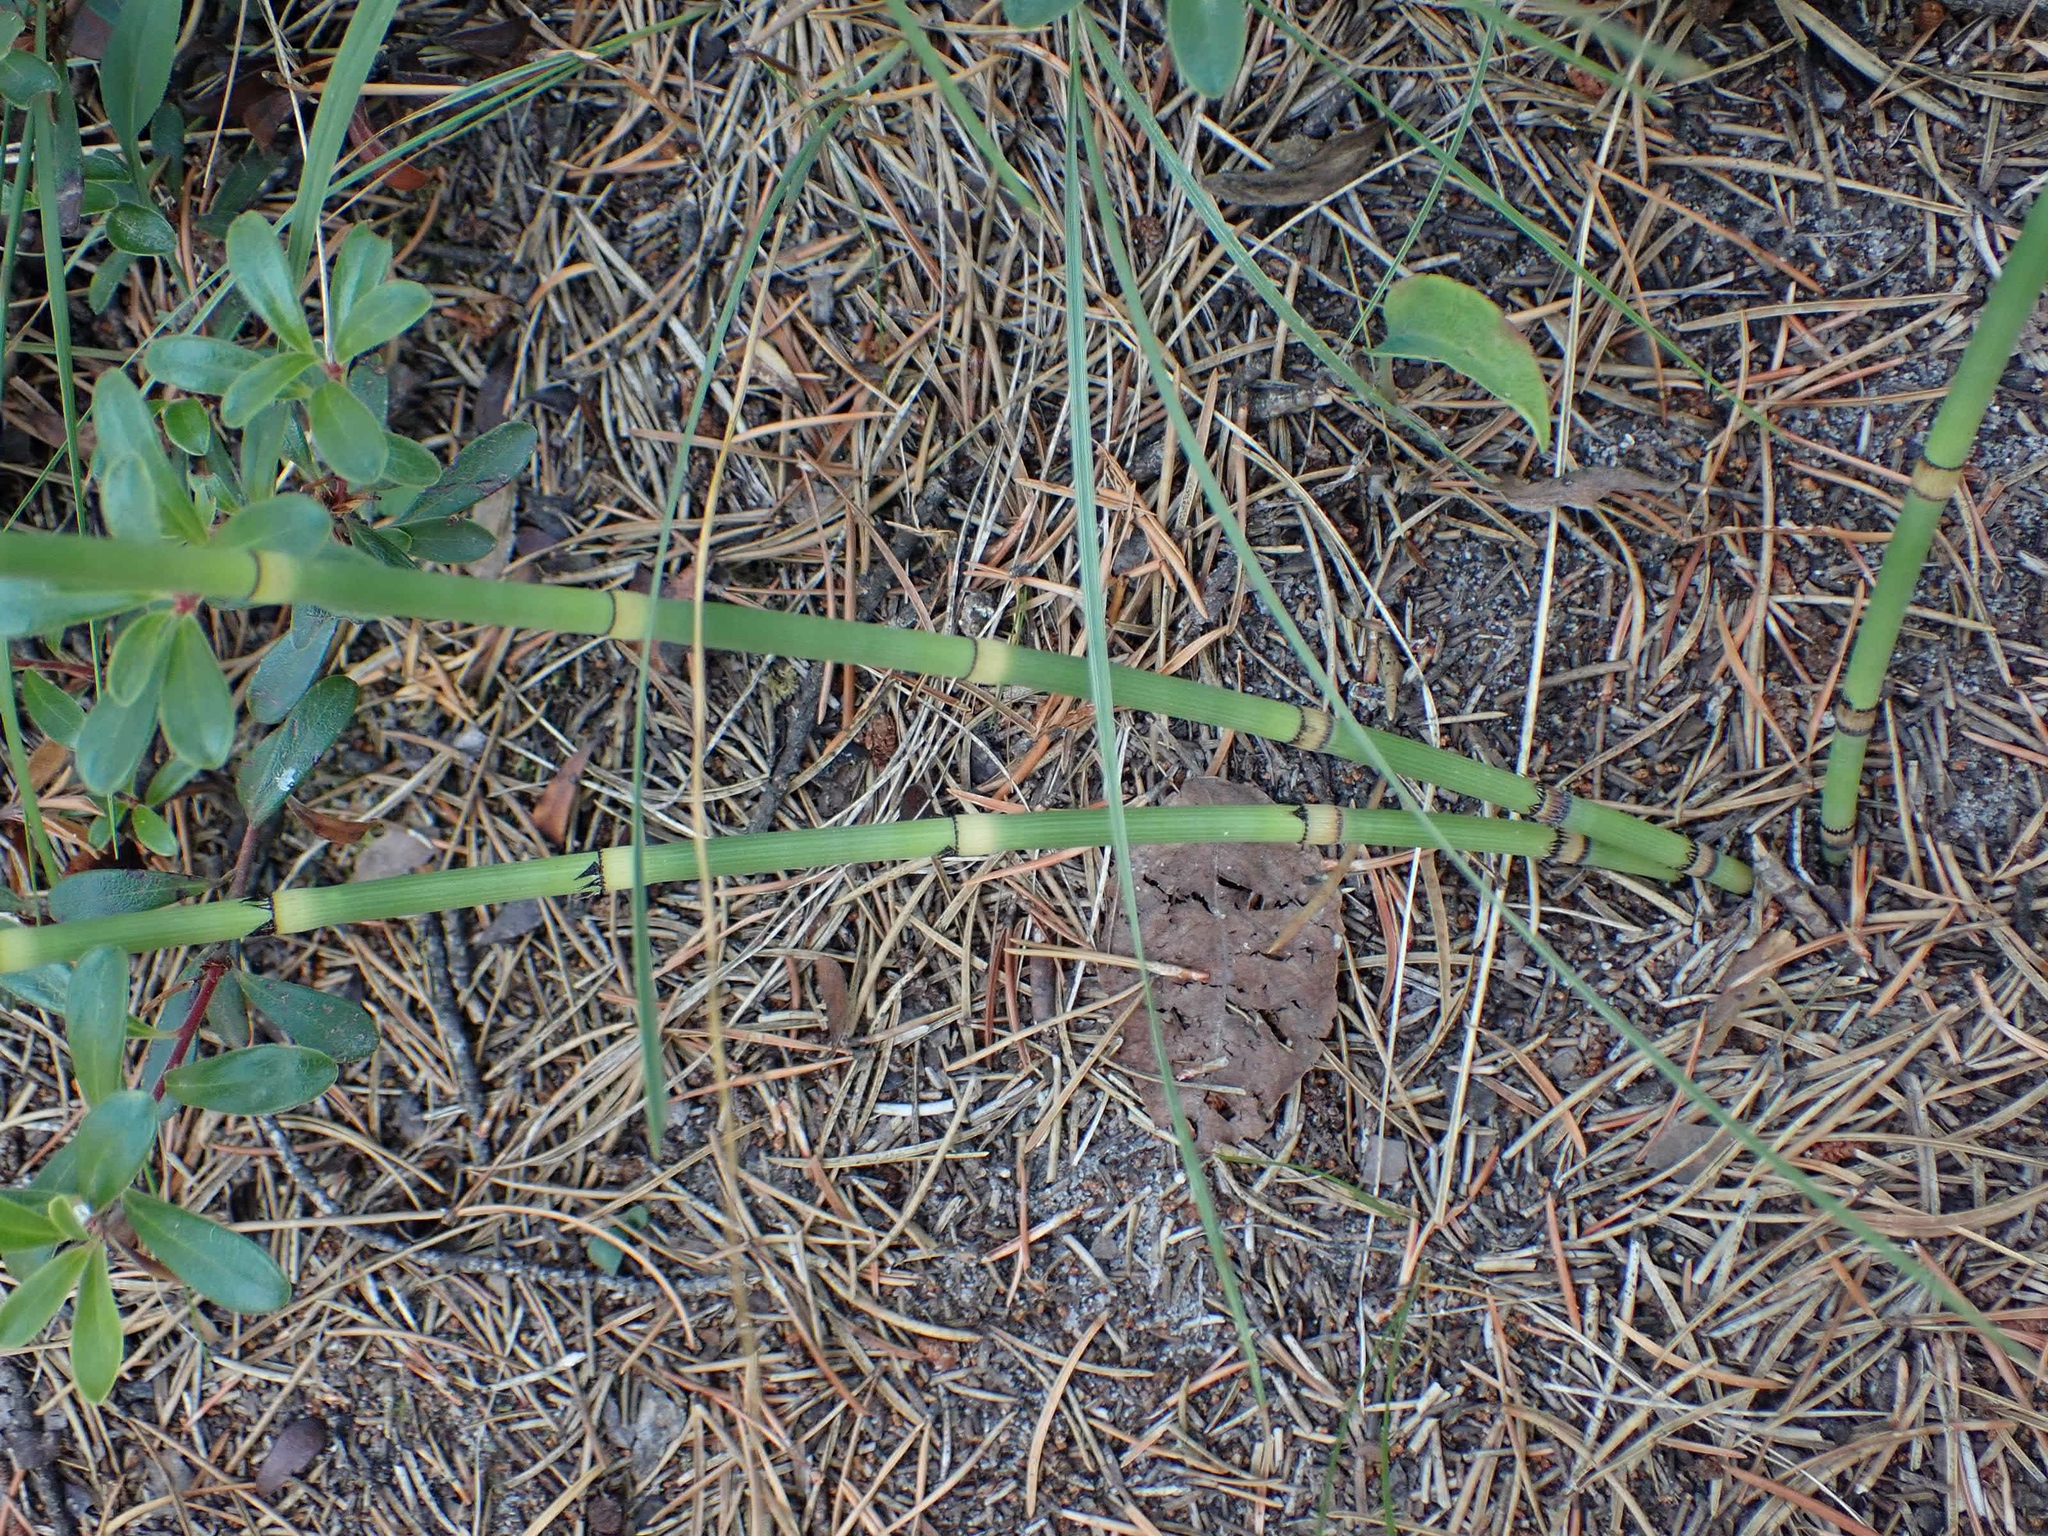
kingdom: Plantae
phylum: Tracheophyta
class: Polypodiopsida
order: Equisetales
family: Equisetaceae
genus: Equisetum
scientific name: Equisetum praealtum
